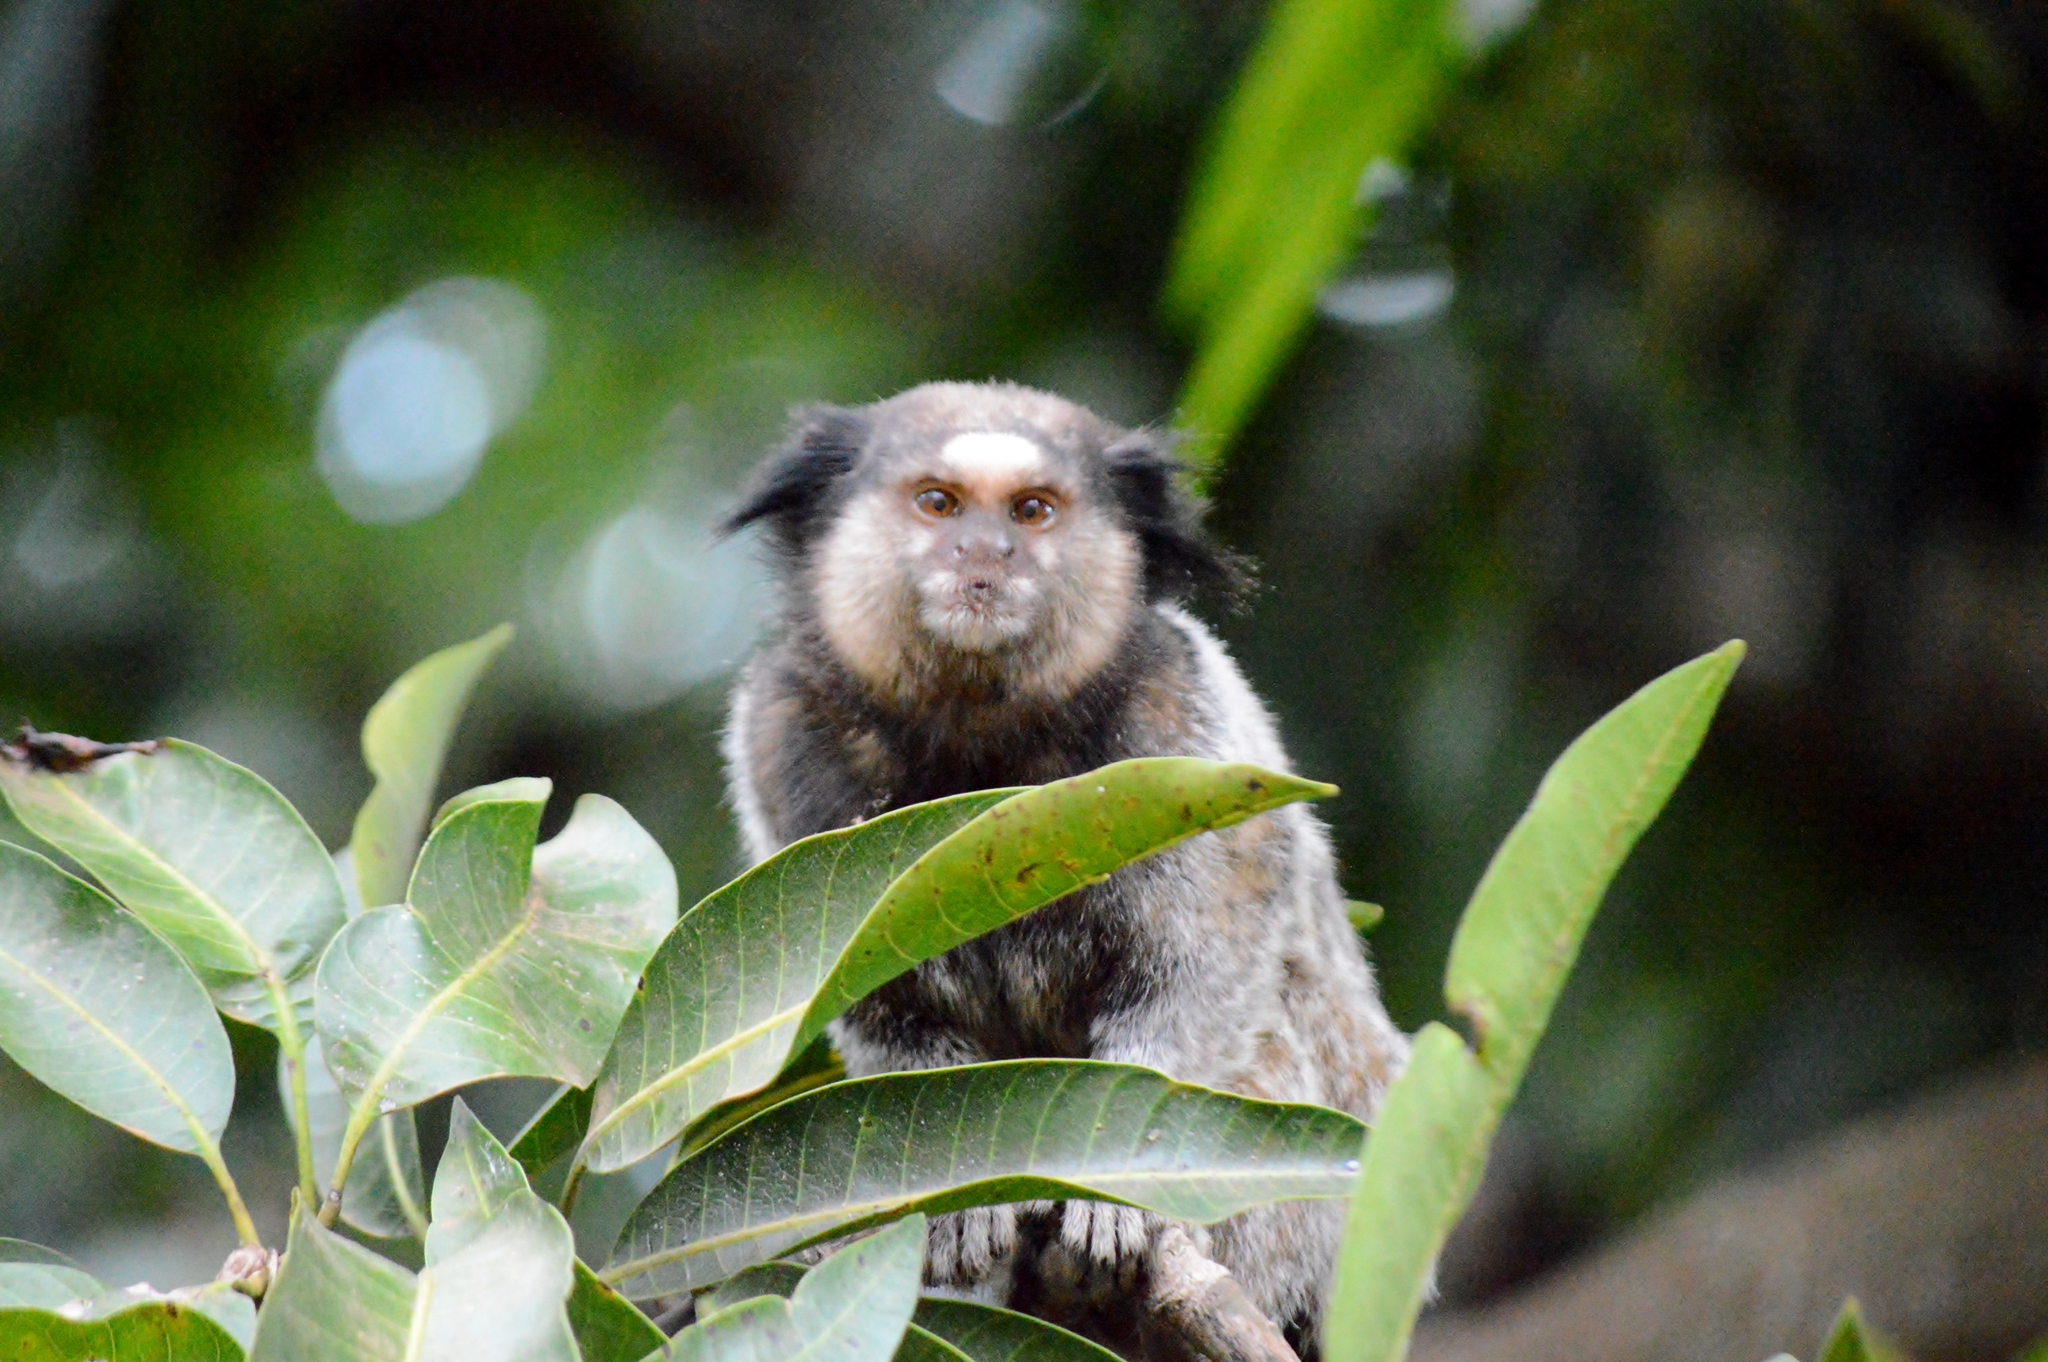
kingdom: Animalia
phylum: Chordata
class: Mammalia
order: Primates
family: Callitrichidae
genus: Callithrix
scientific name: Callithrix penicillata
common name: Black-tufted marmoset
